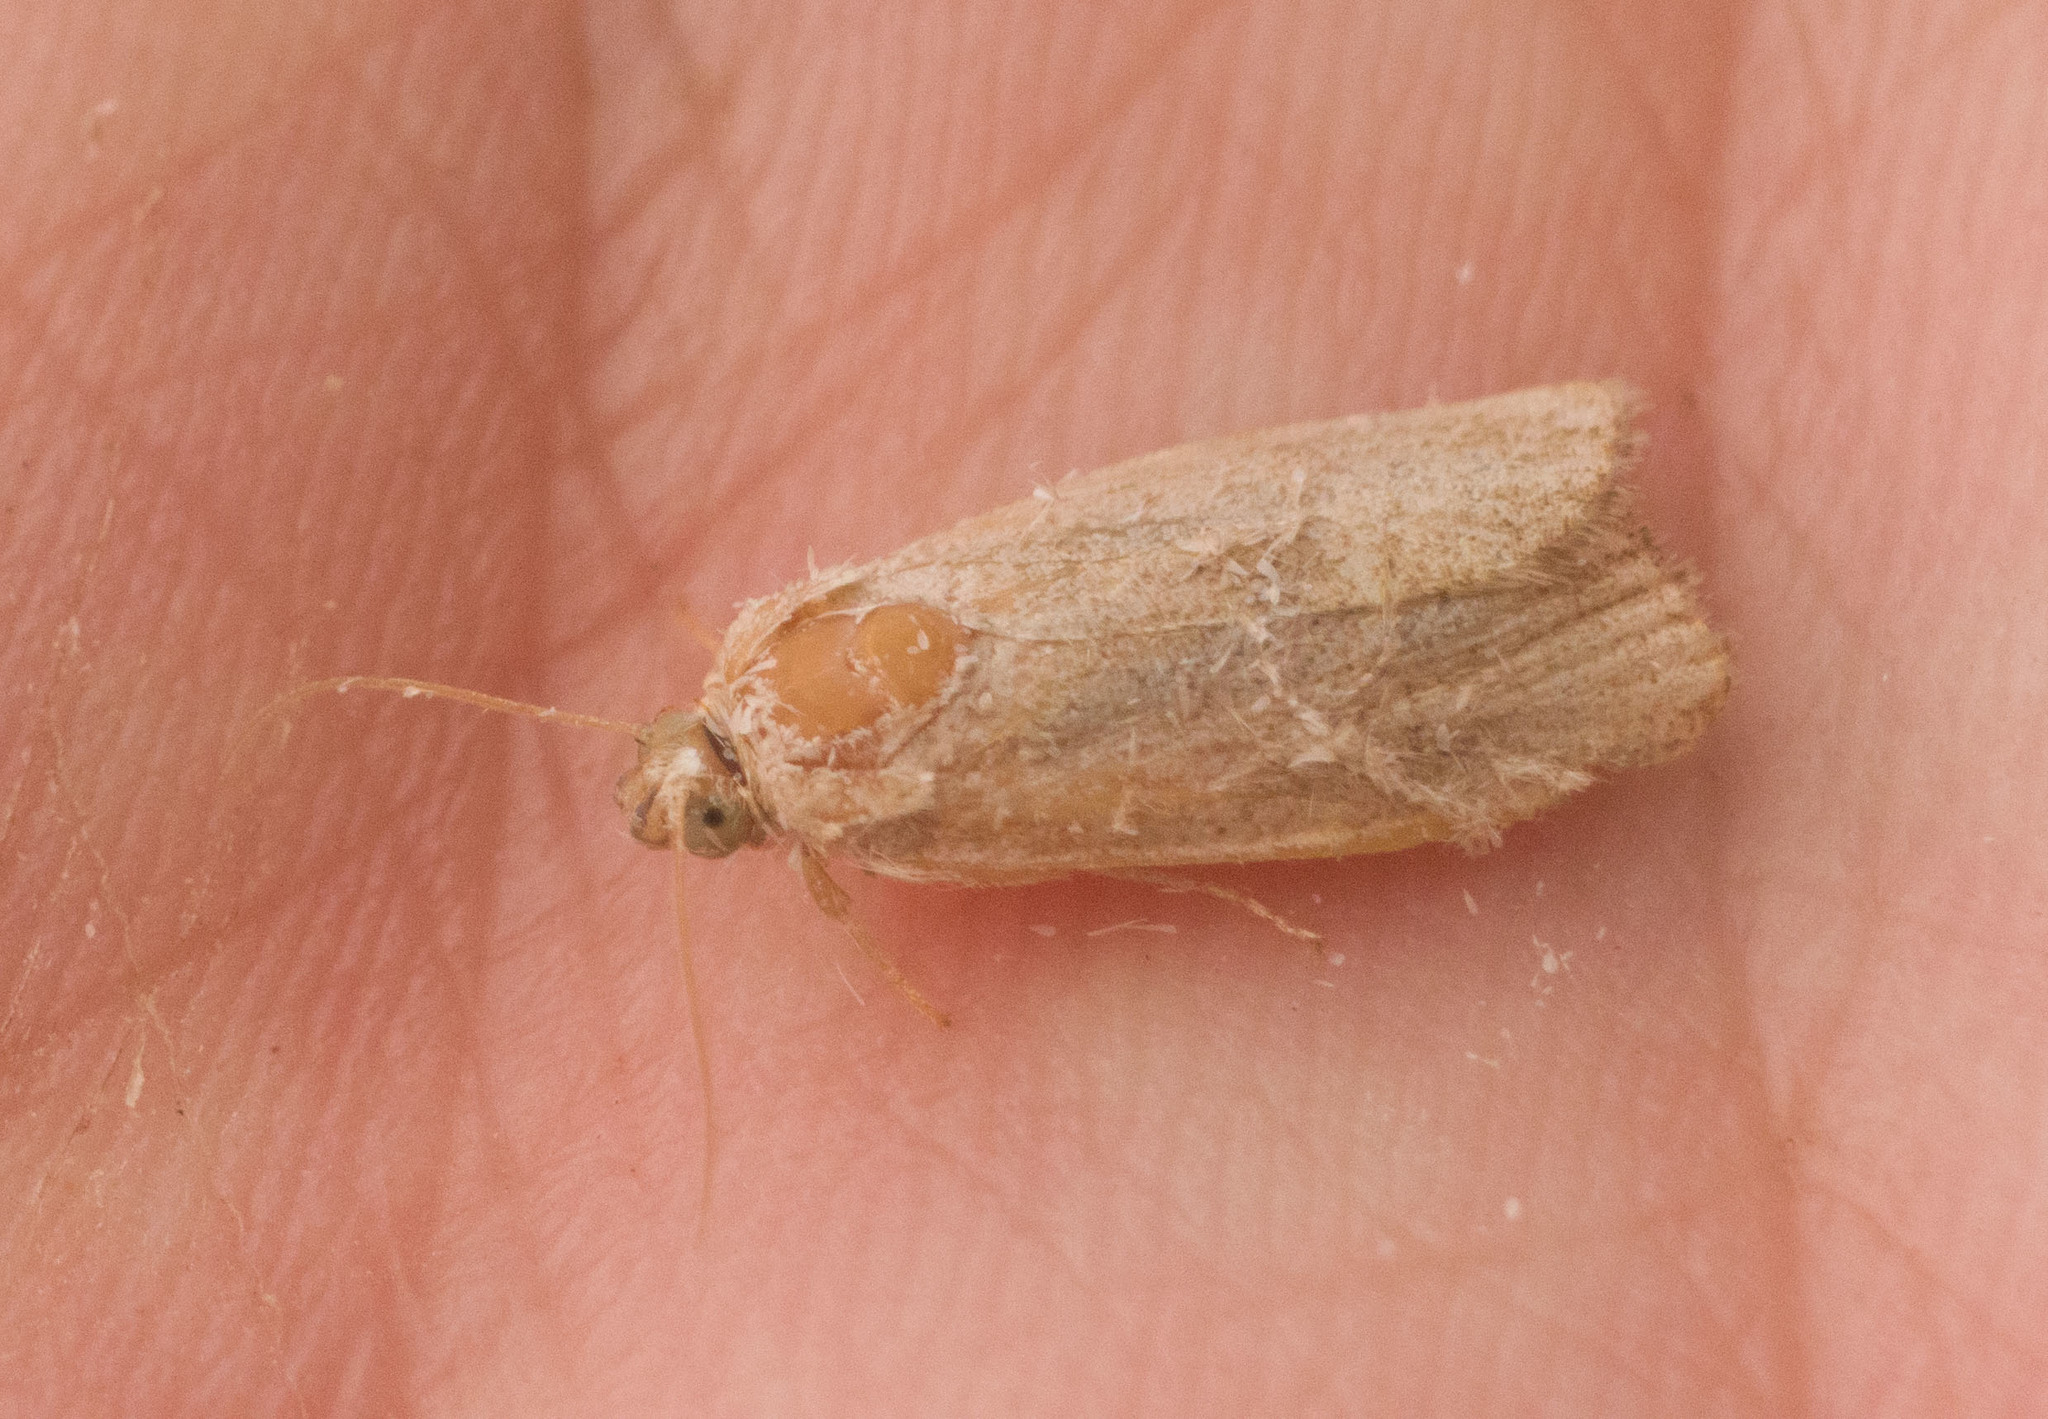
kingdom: Animalia
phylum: Arthropoda
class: Insecta
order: Lepidoptera
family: Immidae
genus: Imma
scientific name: Imma mylias
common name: Moth
